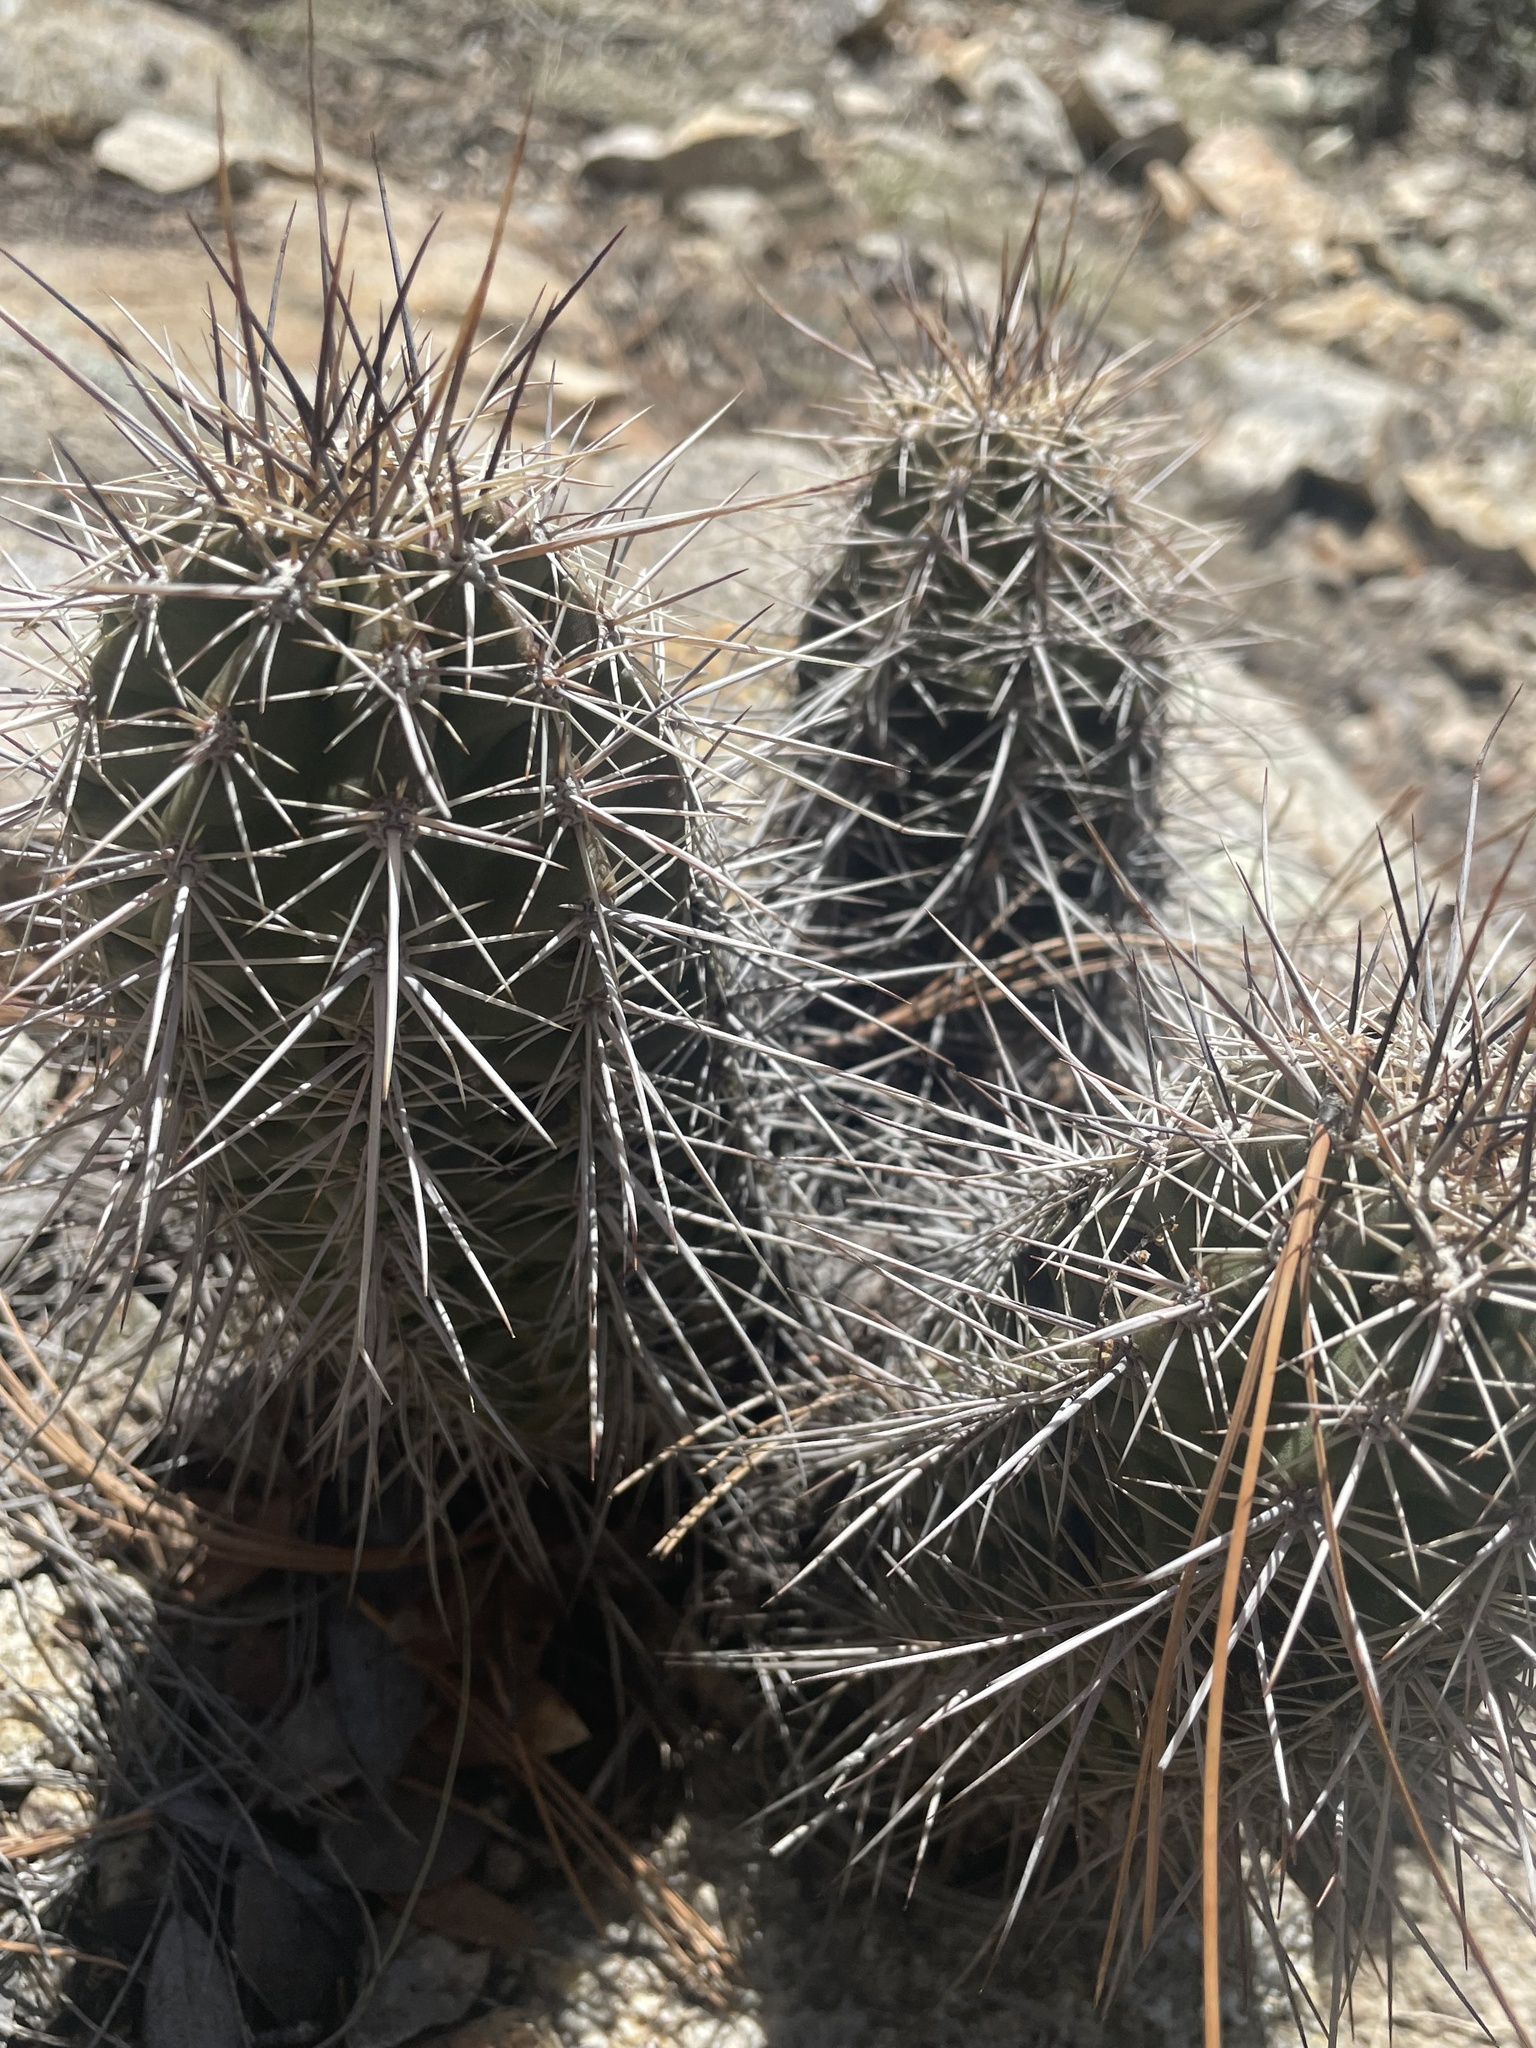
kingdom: Plantae
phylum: Tracheophyta
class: Magnoliopsida
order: Caryophyllales
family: Cactaceae
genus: Echinocereus
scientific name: Echinocereus coccineus
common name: Scarlet hedgehog cactus
